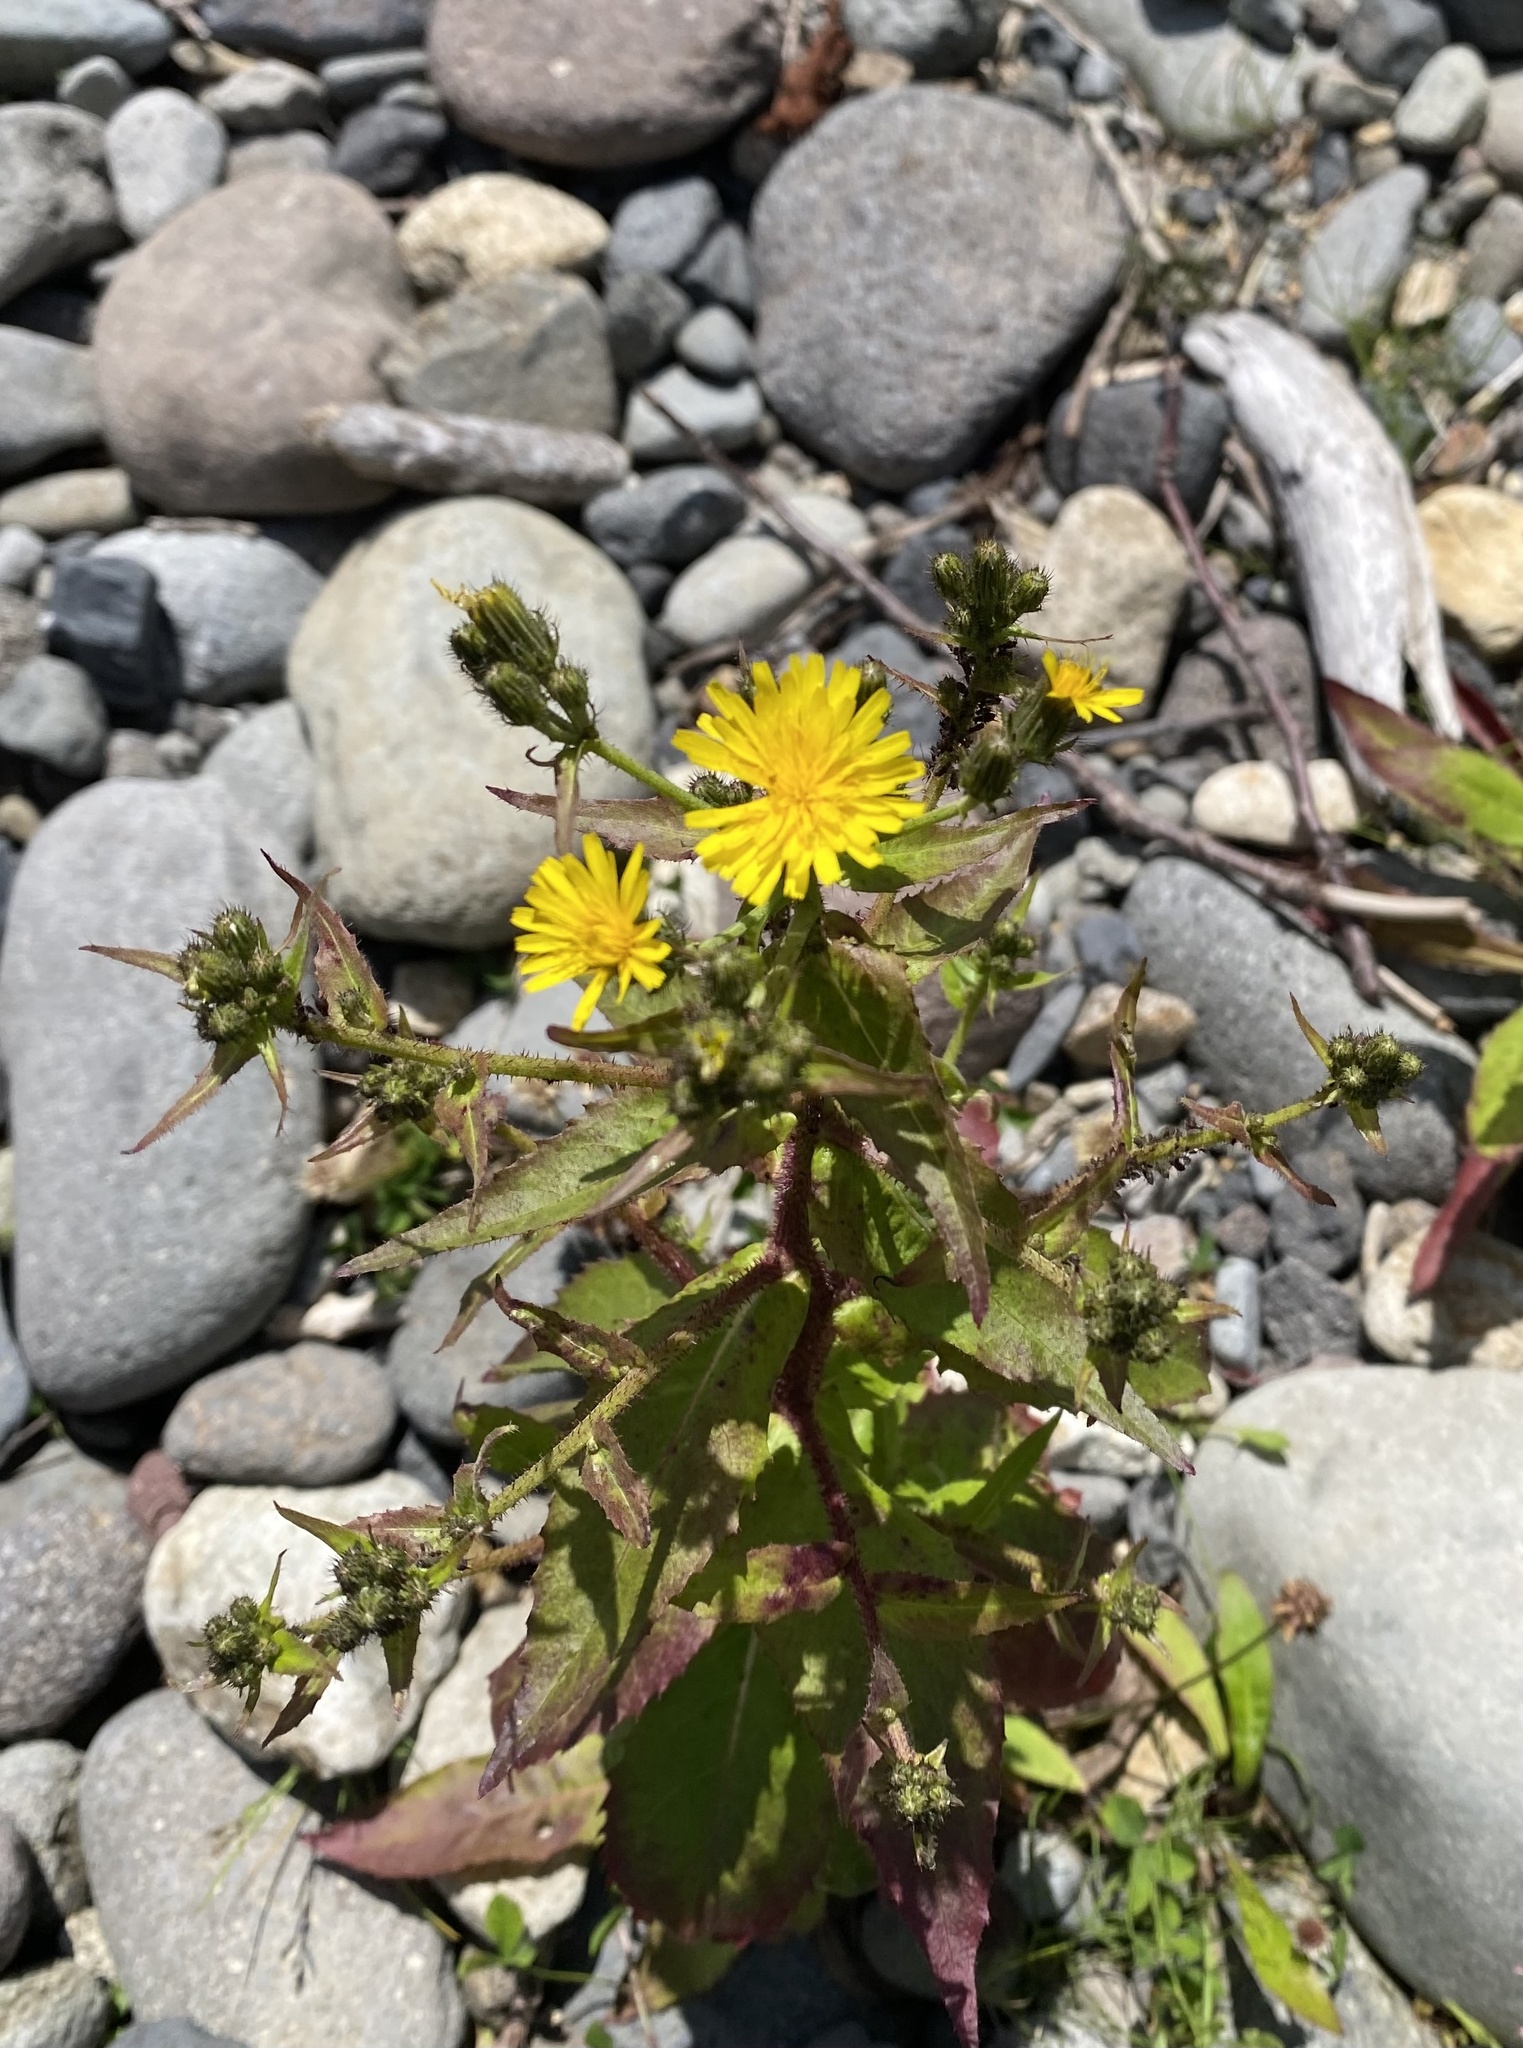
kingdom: Plantae
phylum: Tracheophyta
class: Magnoliopsida
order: Asterales
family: Asteraceae
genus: Picris
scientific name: Picris japonica
